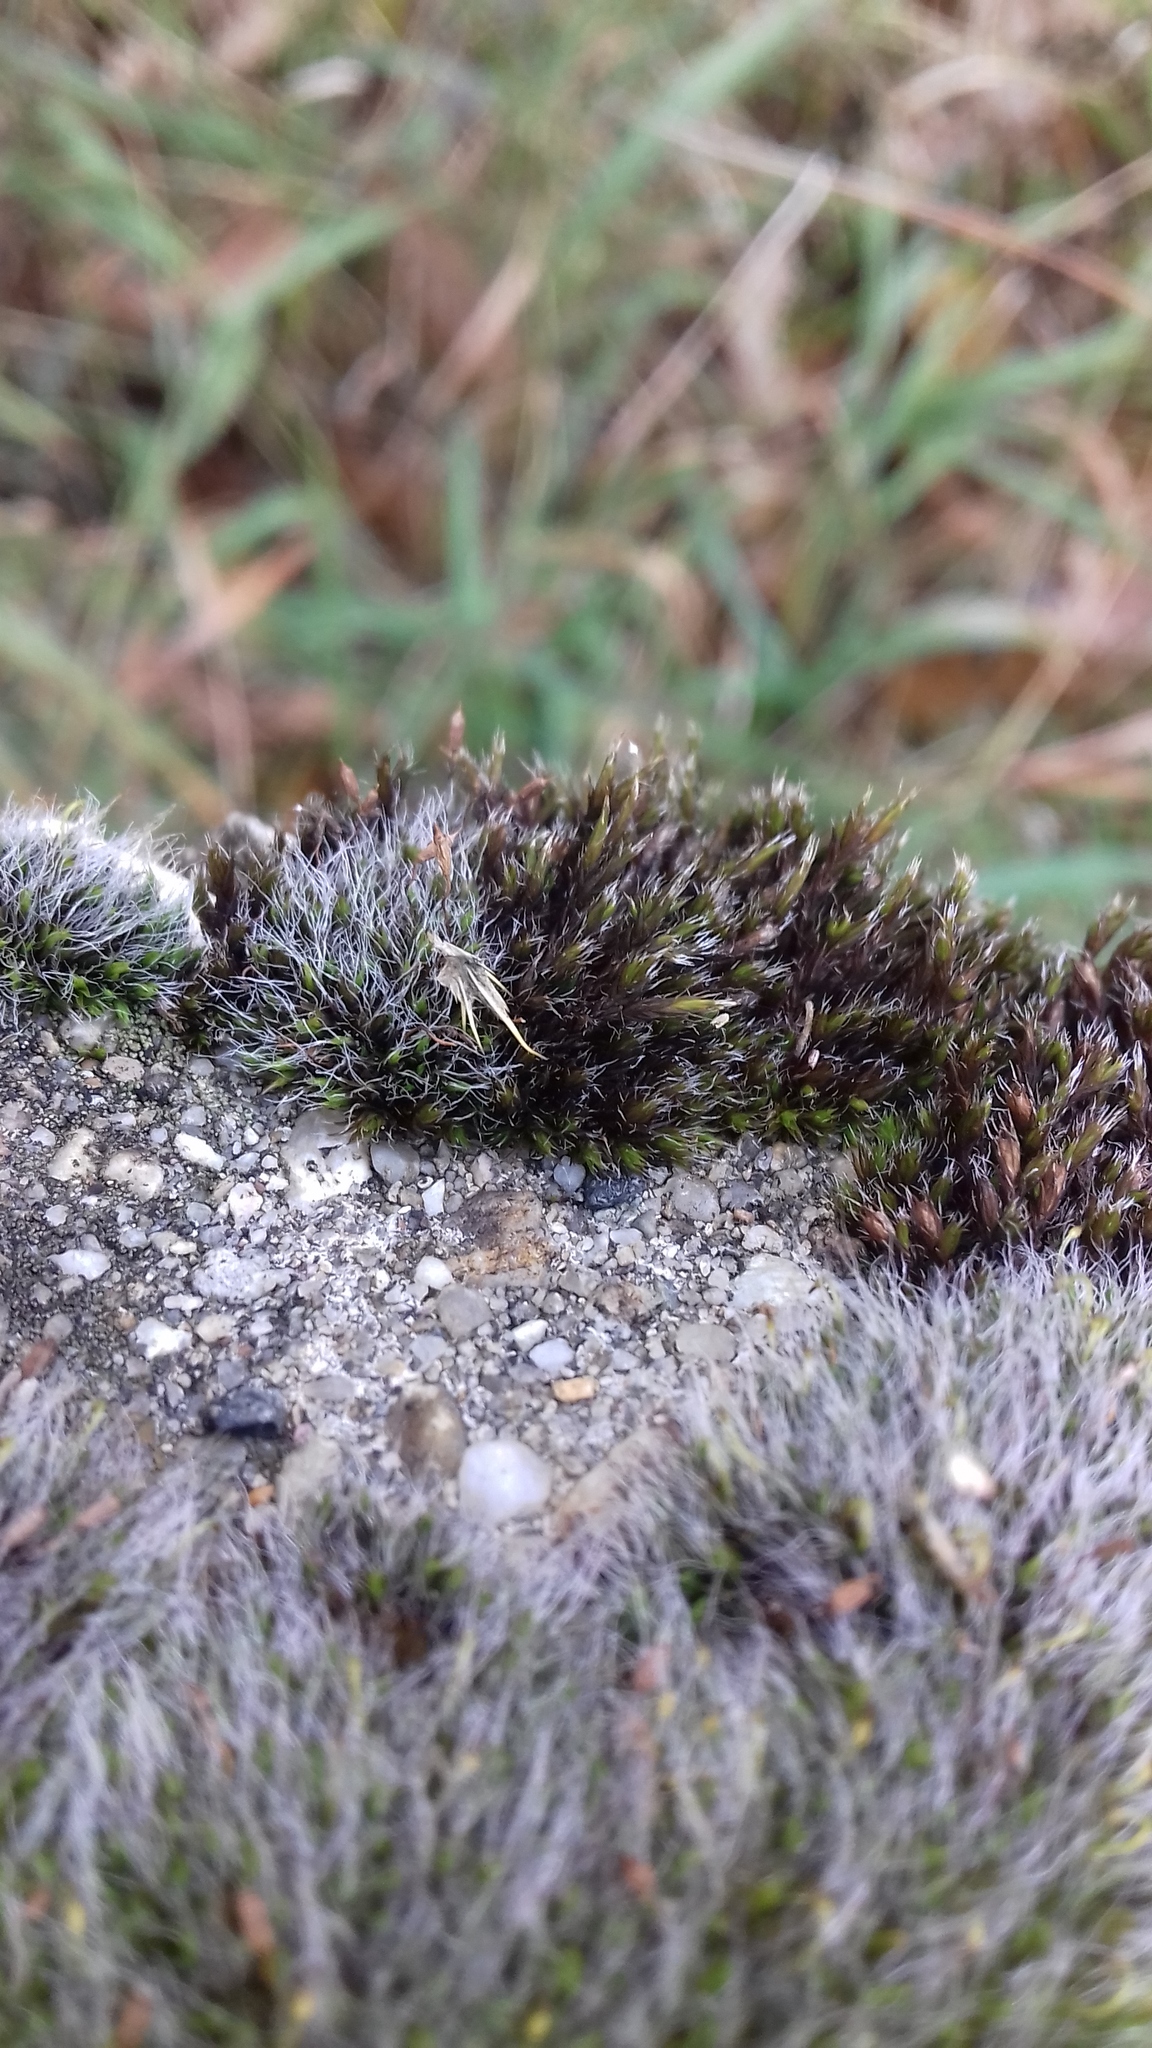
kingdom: Plantae
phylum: Bryophyta
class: Bryopsida
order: Grimmiales
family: Grimmiaceae
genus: Grimmia
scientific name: Grimmia pulvinata
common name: Grey-cushioned grimmia
